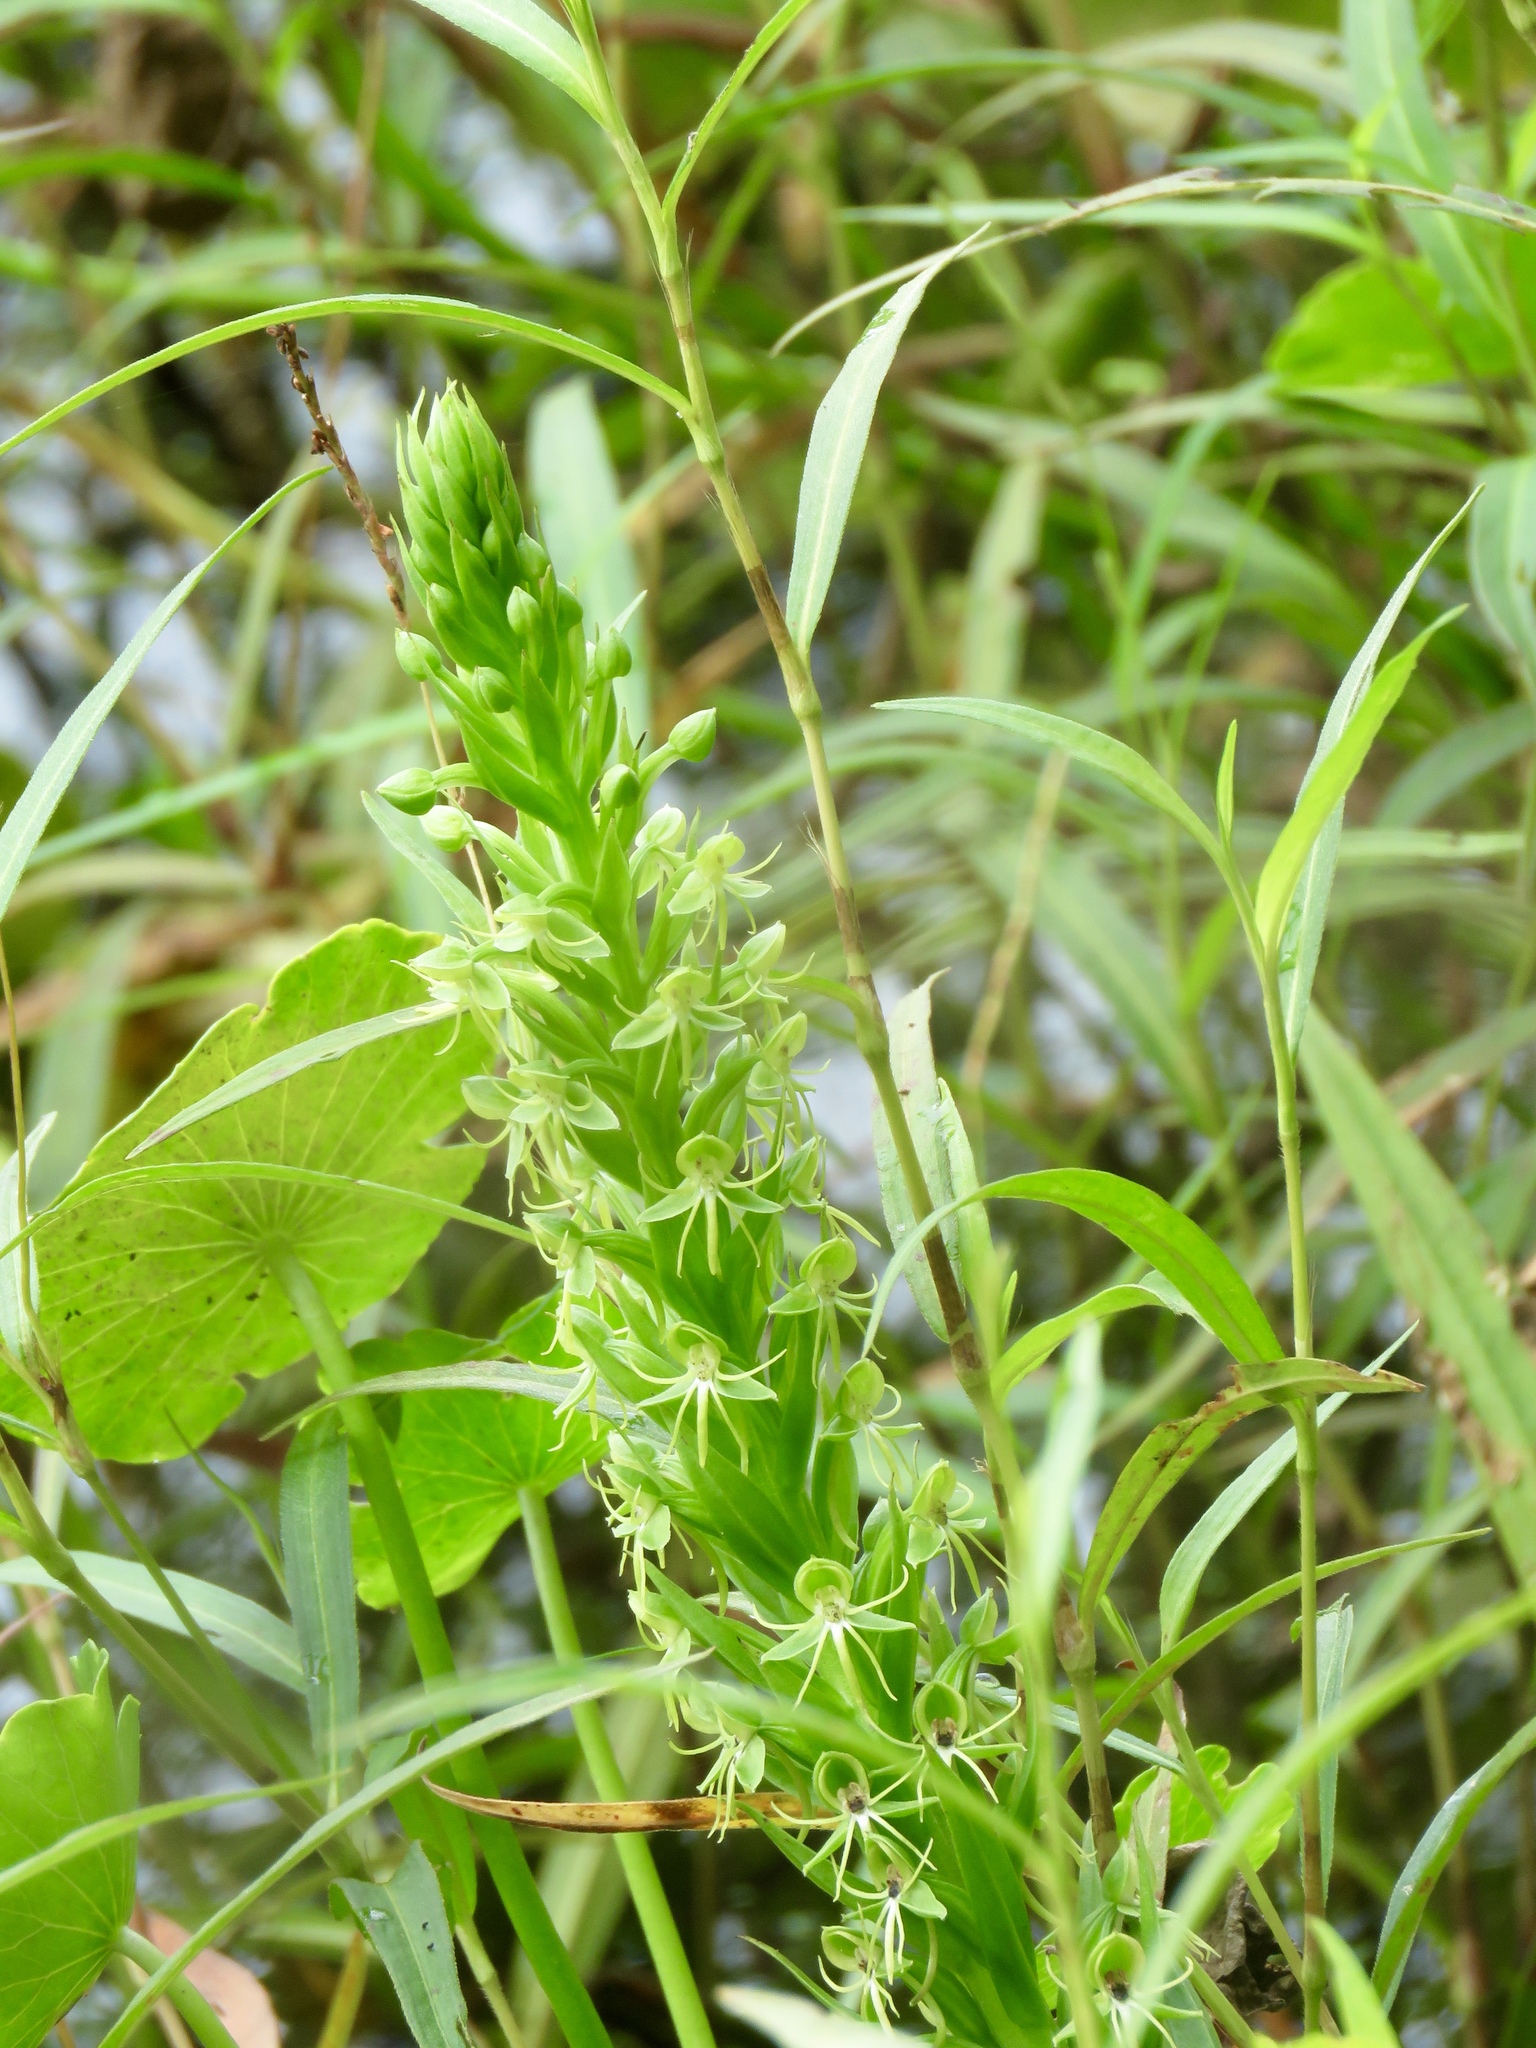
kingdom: Plantae
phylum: Tracheophyta
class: Liliopsida
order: Asparagales
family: Orchidaceae
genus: Habenaria
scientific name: Habenaria repens
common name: Water orchid
